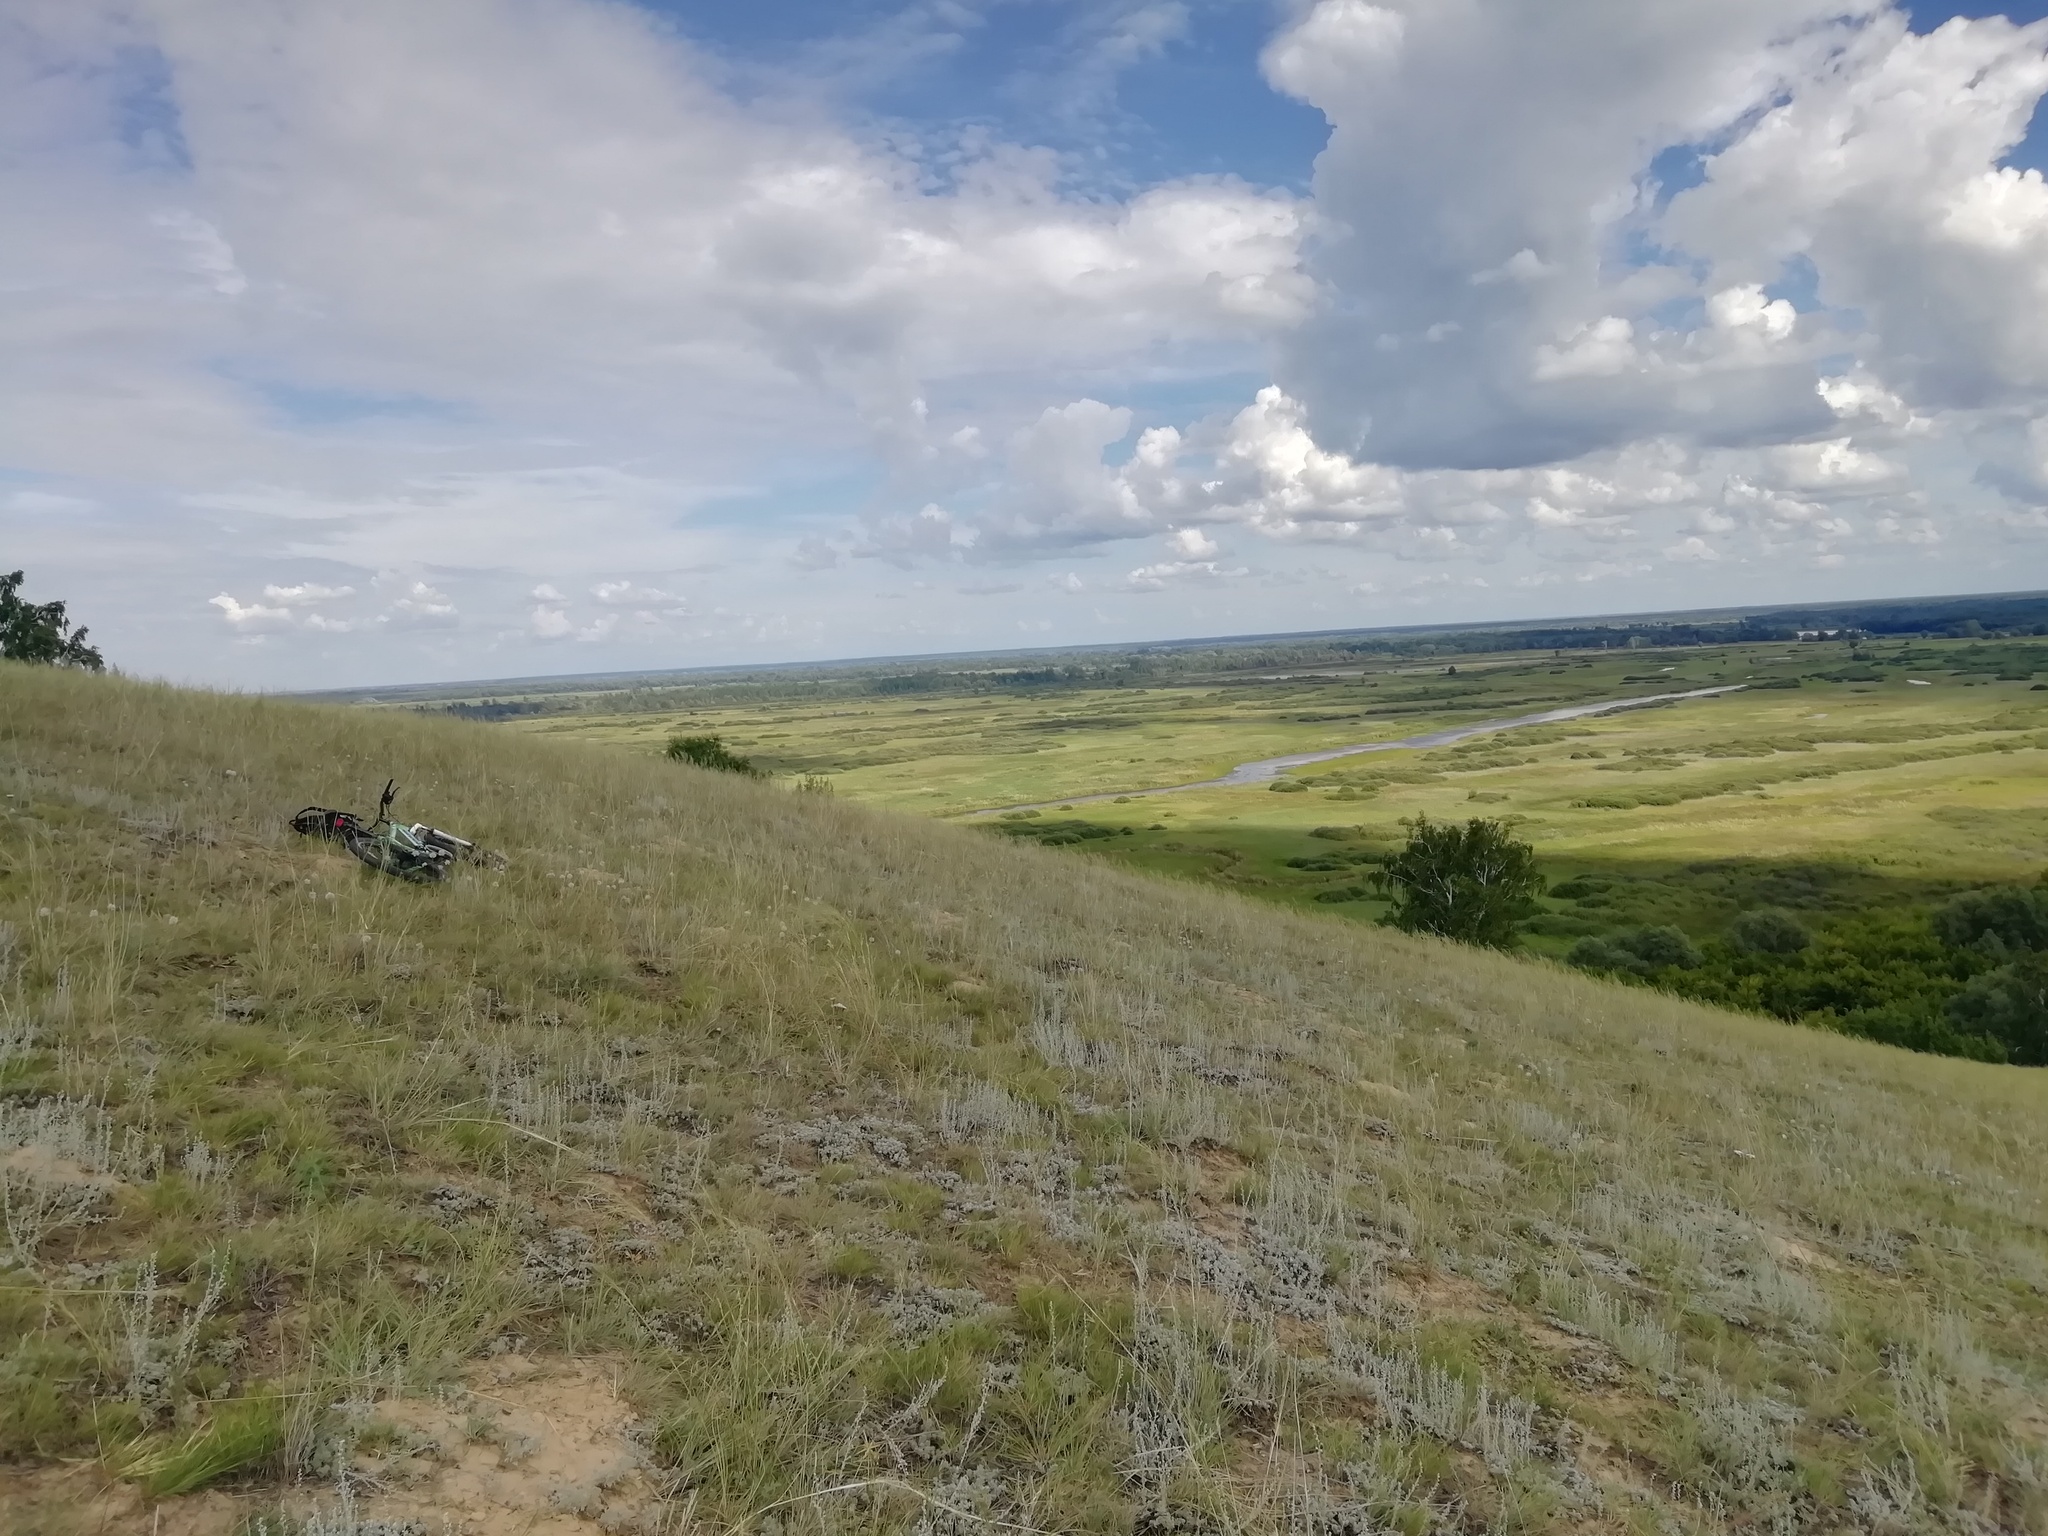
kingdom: Animalia
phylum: Arthropoda
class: Insecta
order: Lepidoptera
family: Hesperiidae
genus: Hesperia
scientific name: Hesperia comma
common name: Common branded skipper
